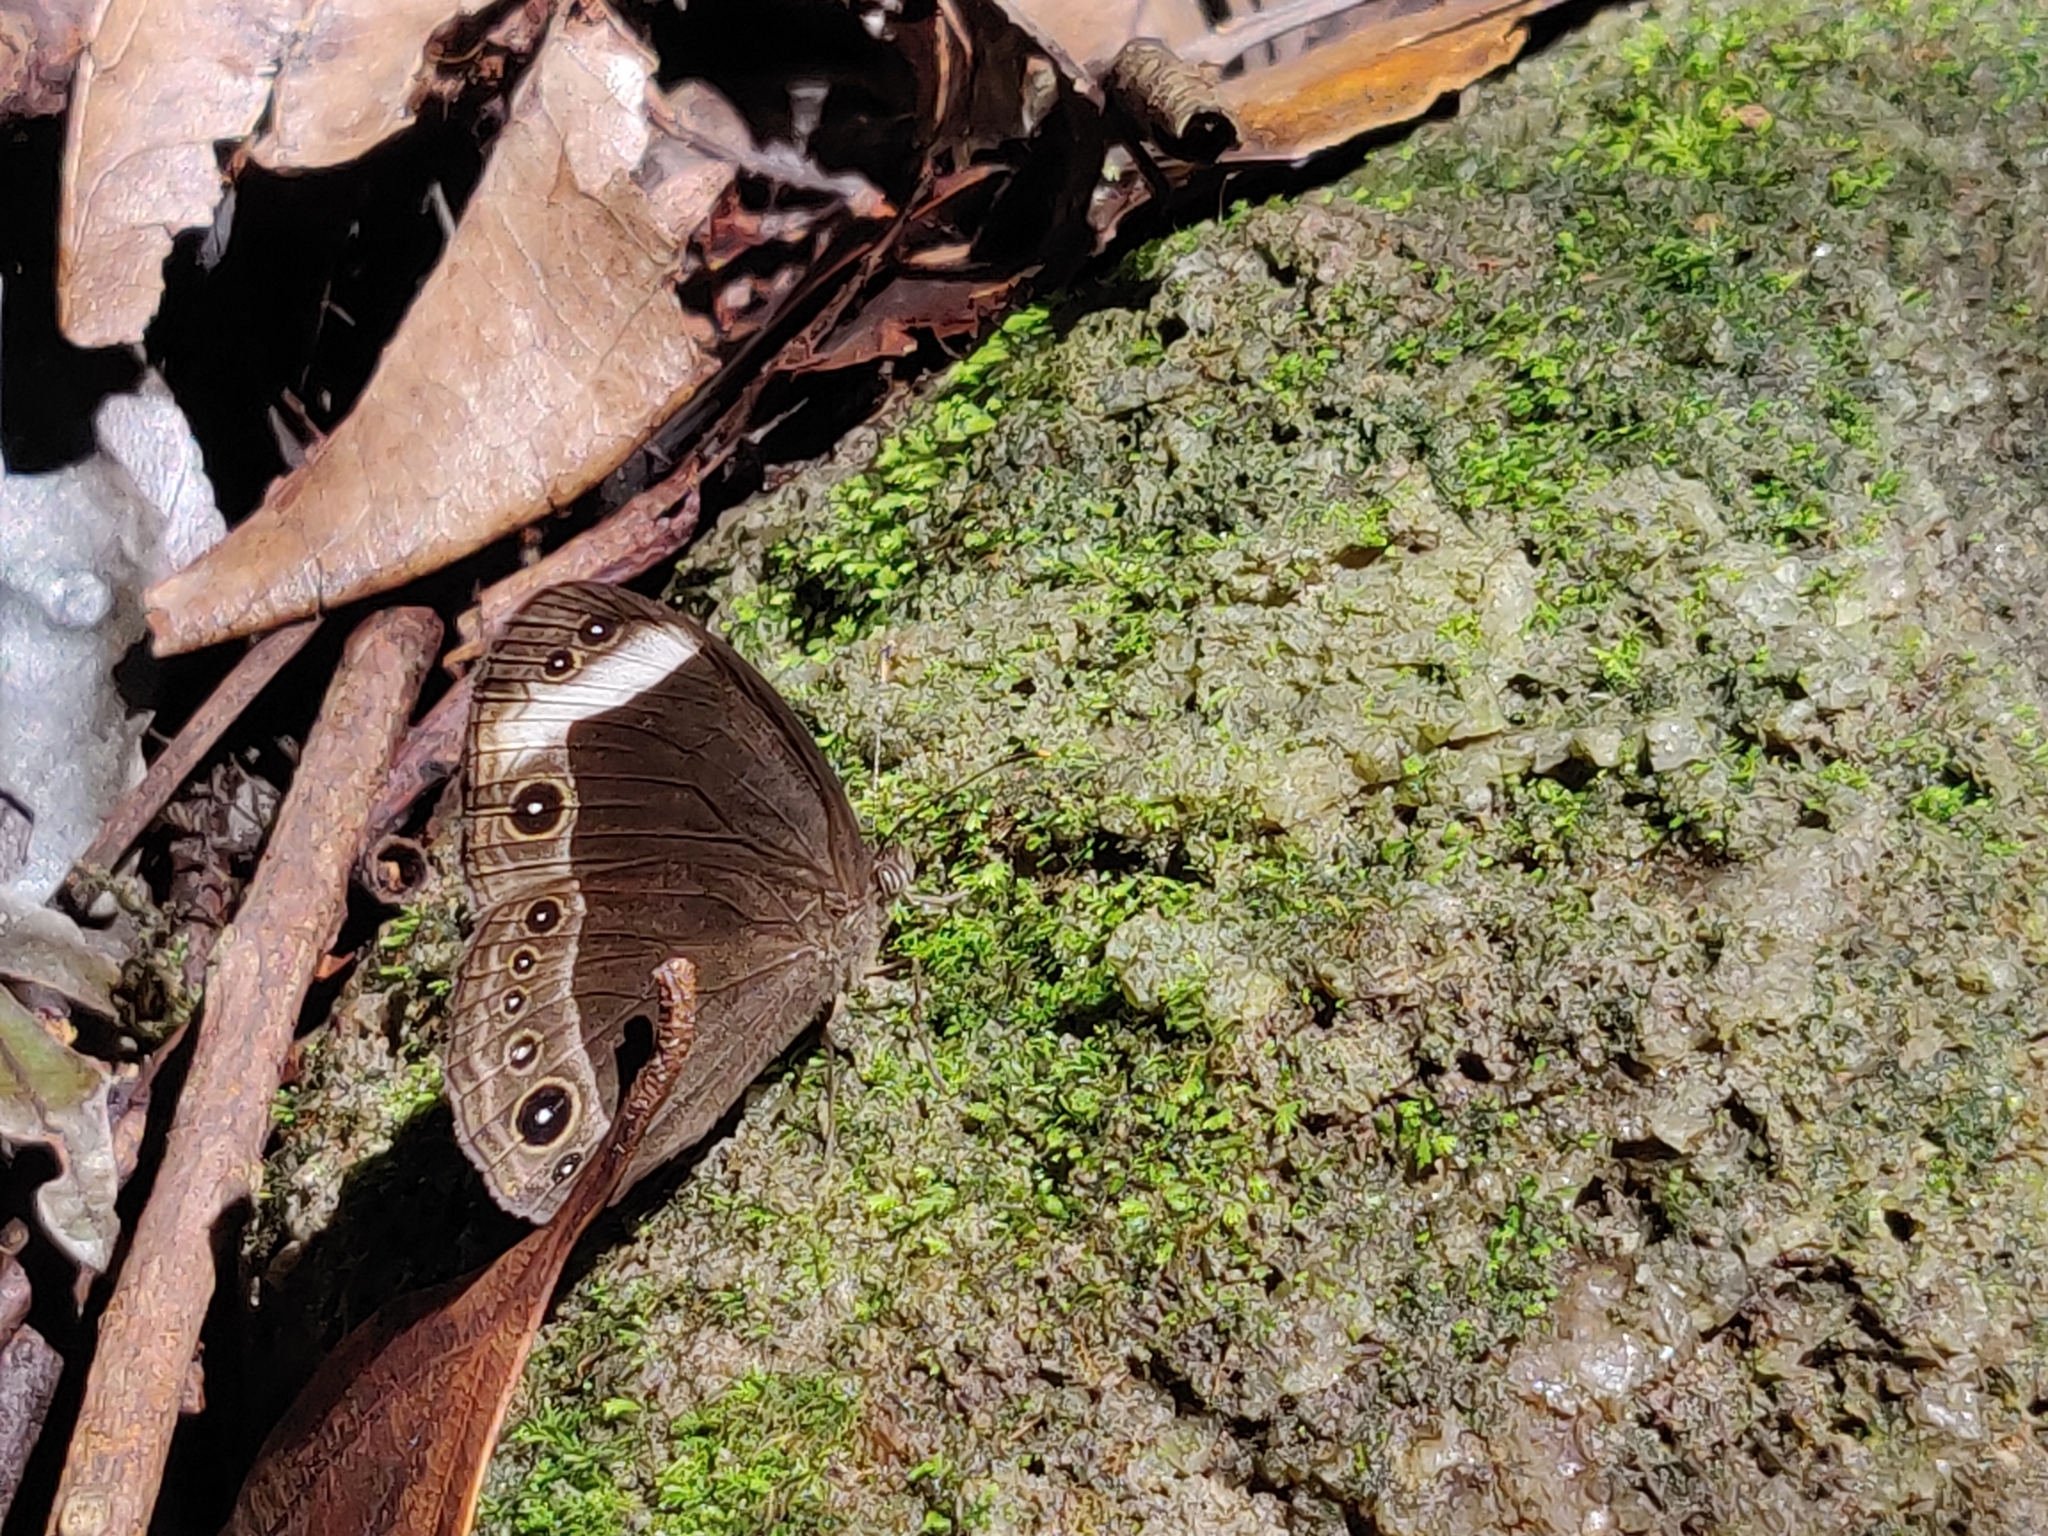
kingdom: Animalia
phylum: Arthropoda
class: Insecta
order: Lepidoptera
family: Nymphalidae
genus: Mycalesis
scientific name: Mycalesis anaxias
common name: White-bar bushbrown
